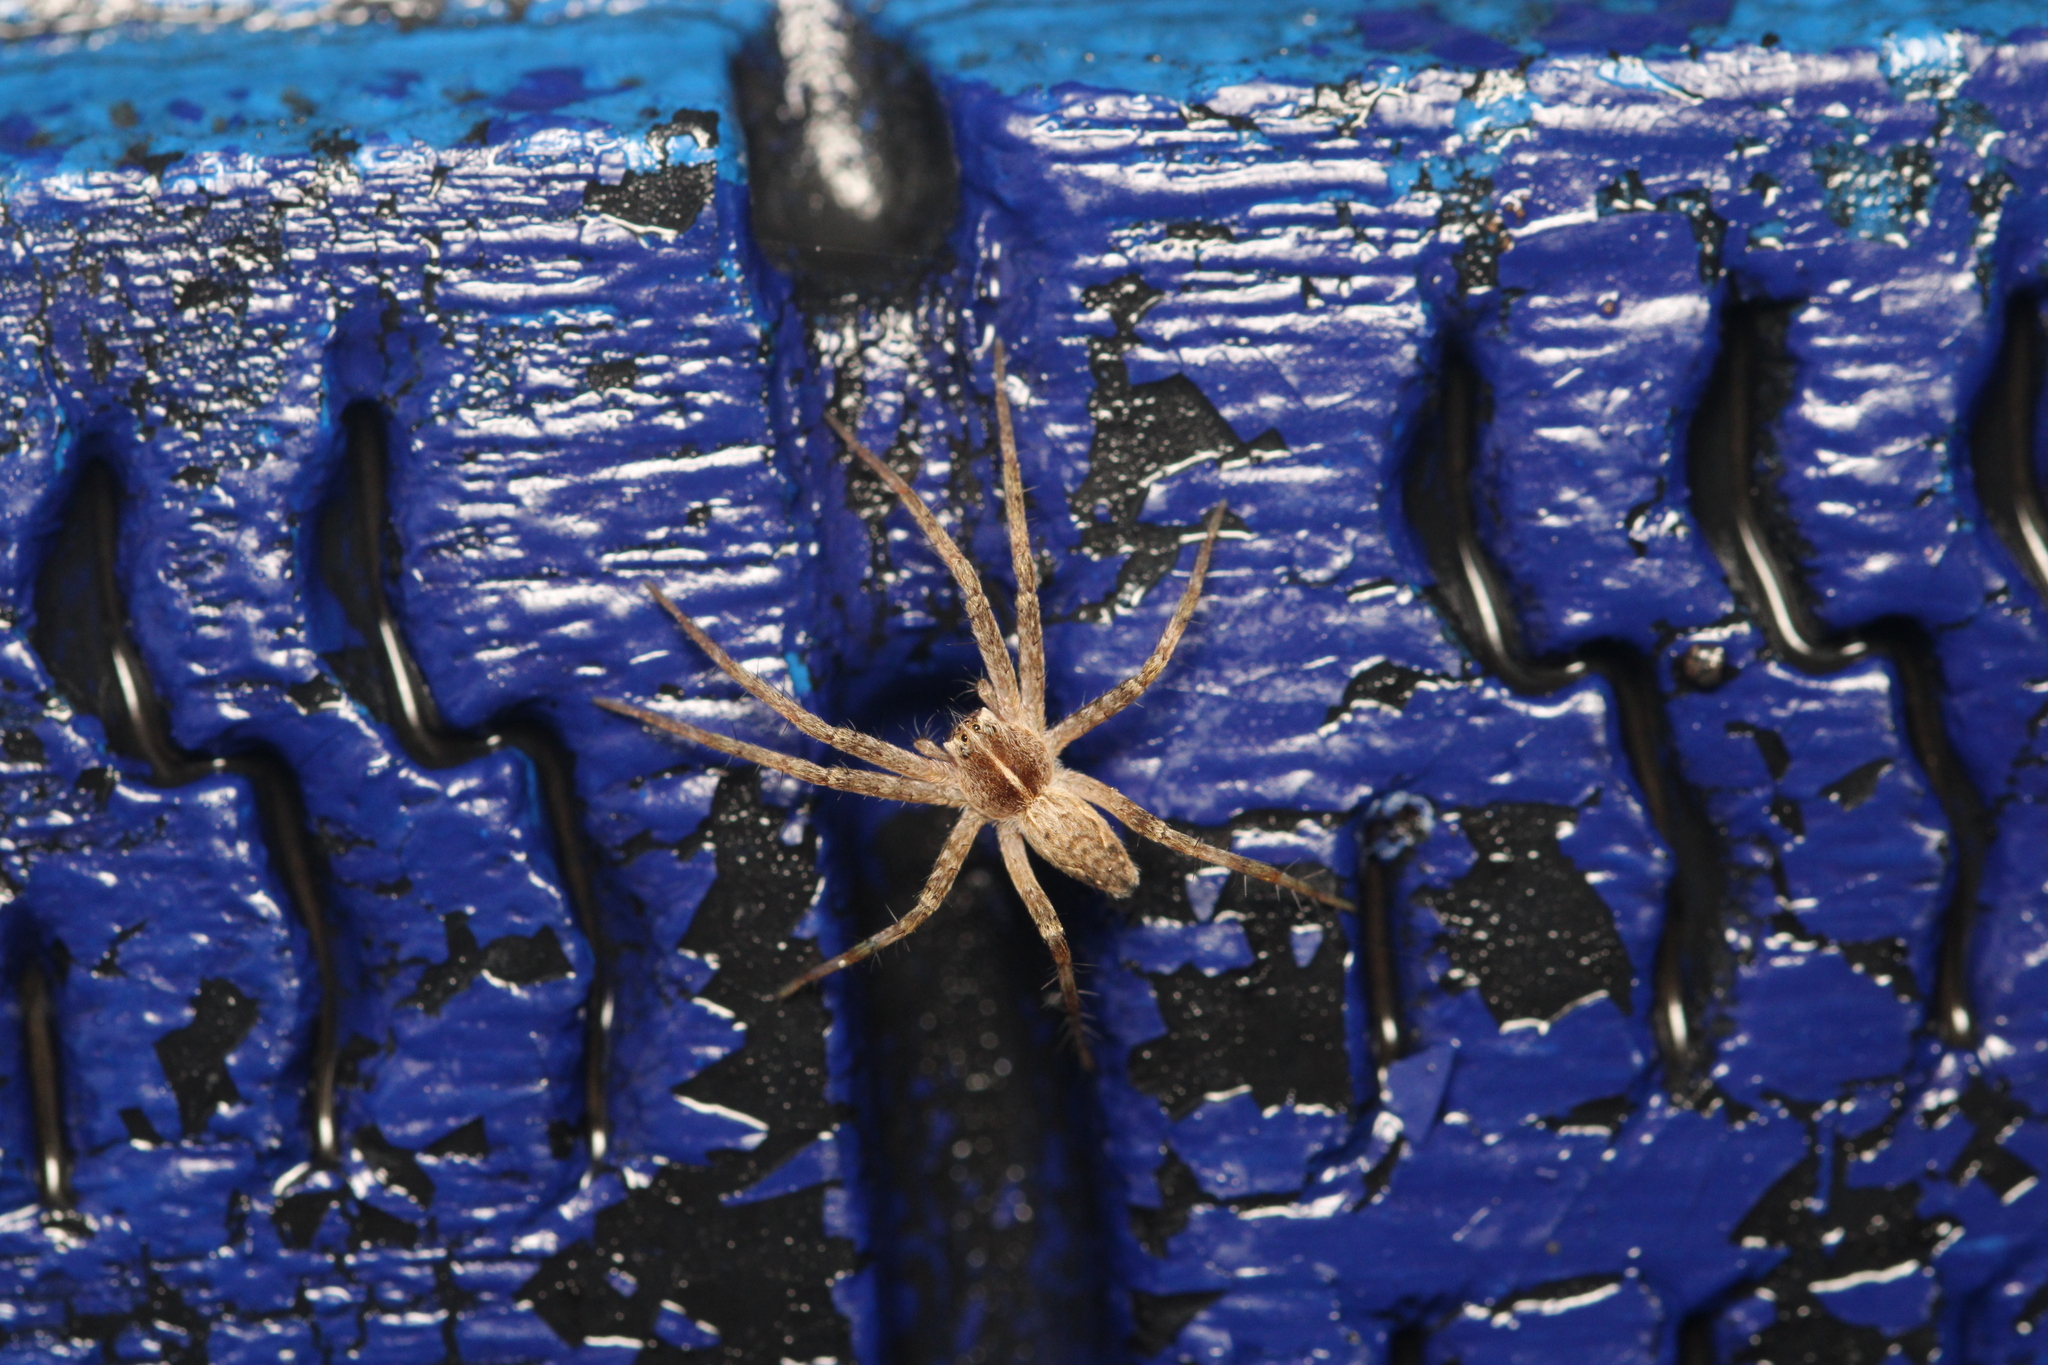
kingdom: Animalia
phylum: Arthropoda
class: Arachnida
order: Araneae
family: Pisauridae
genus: Pisaura
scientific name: Pisaura mirabilis
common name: Tent spider
